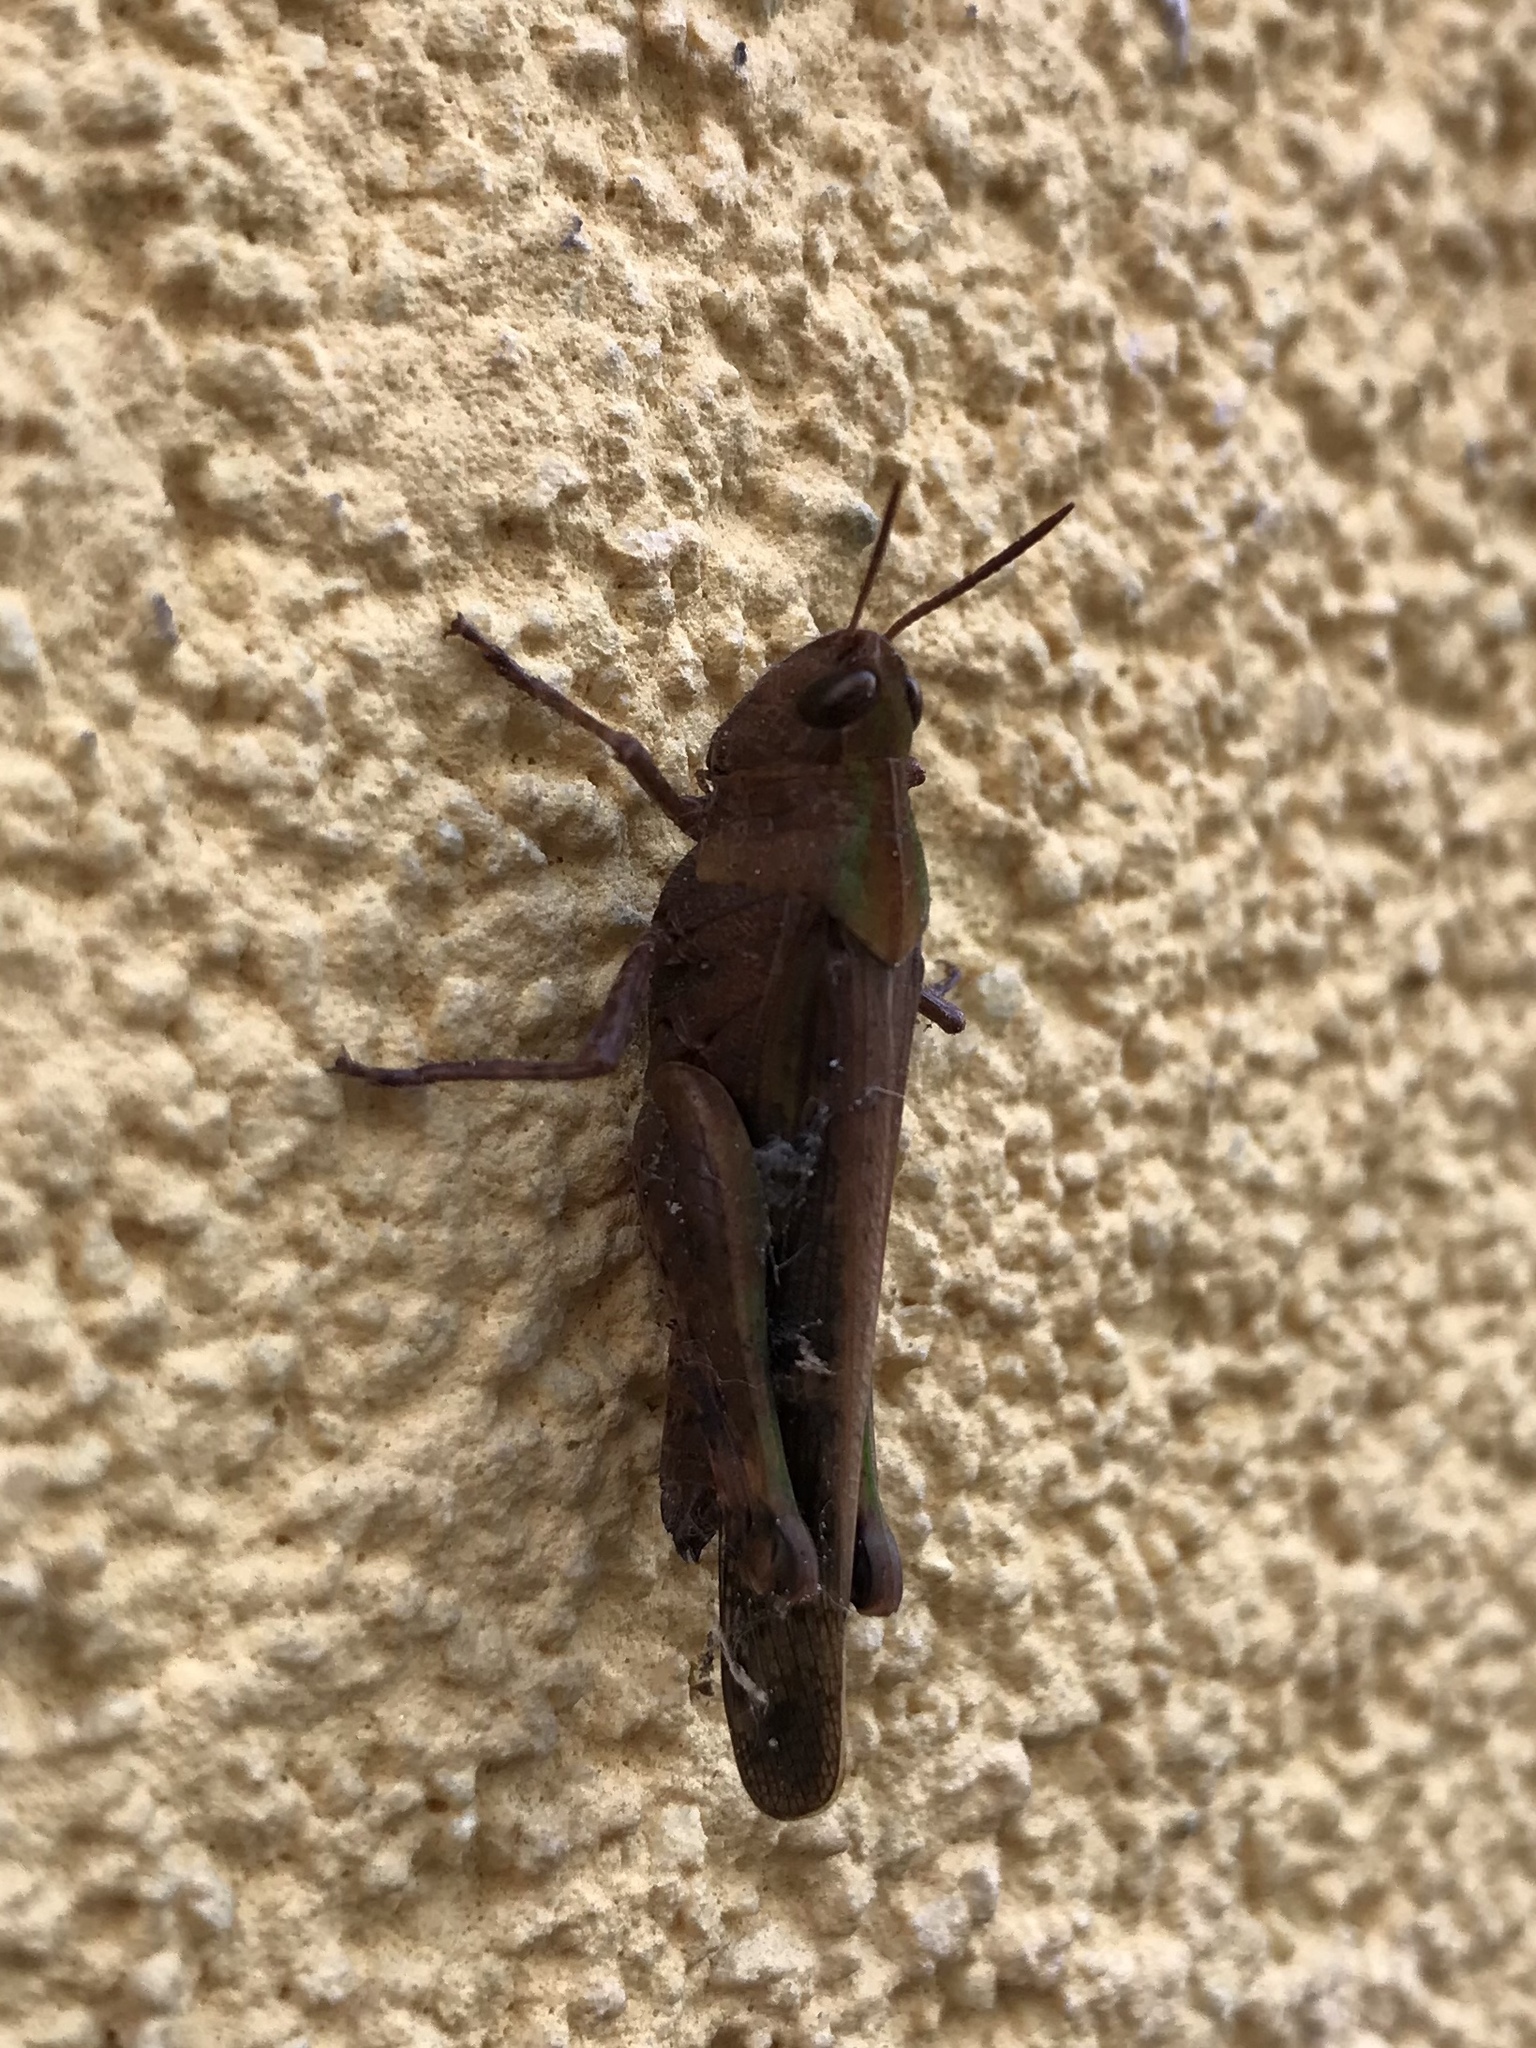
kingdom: Animalia
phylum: Arthropoda
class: Insecta
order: Orthoptera
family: Acrididae
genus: Aiolopus
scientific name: Aiolopus strepens
